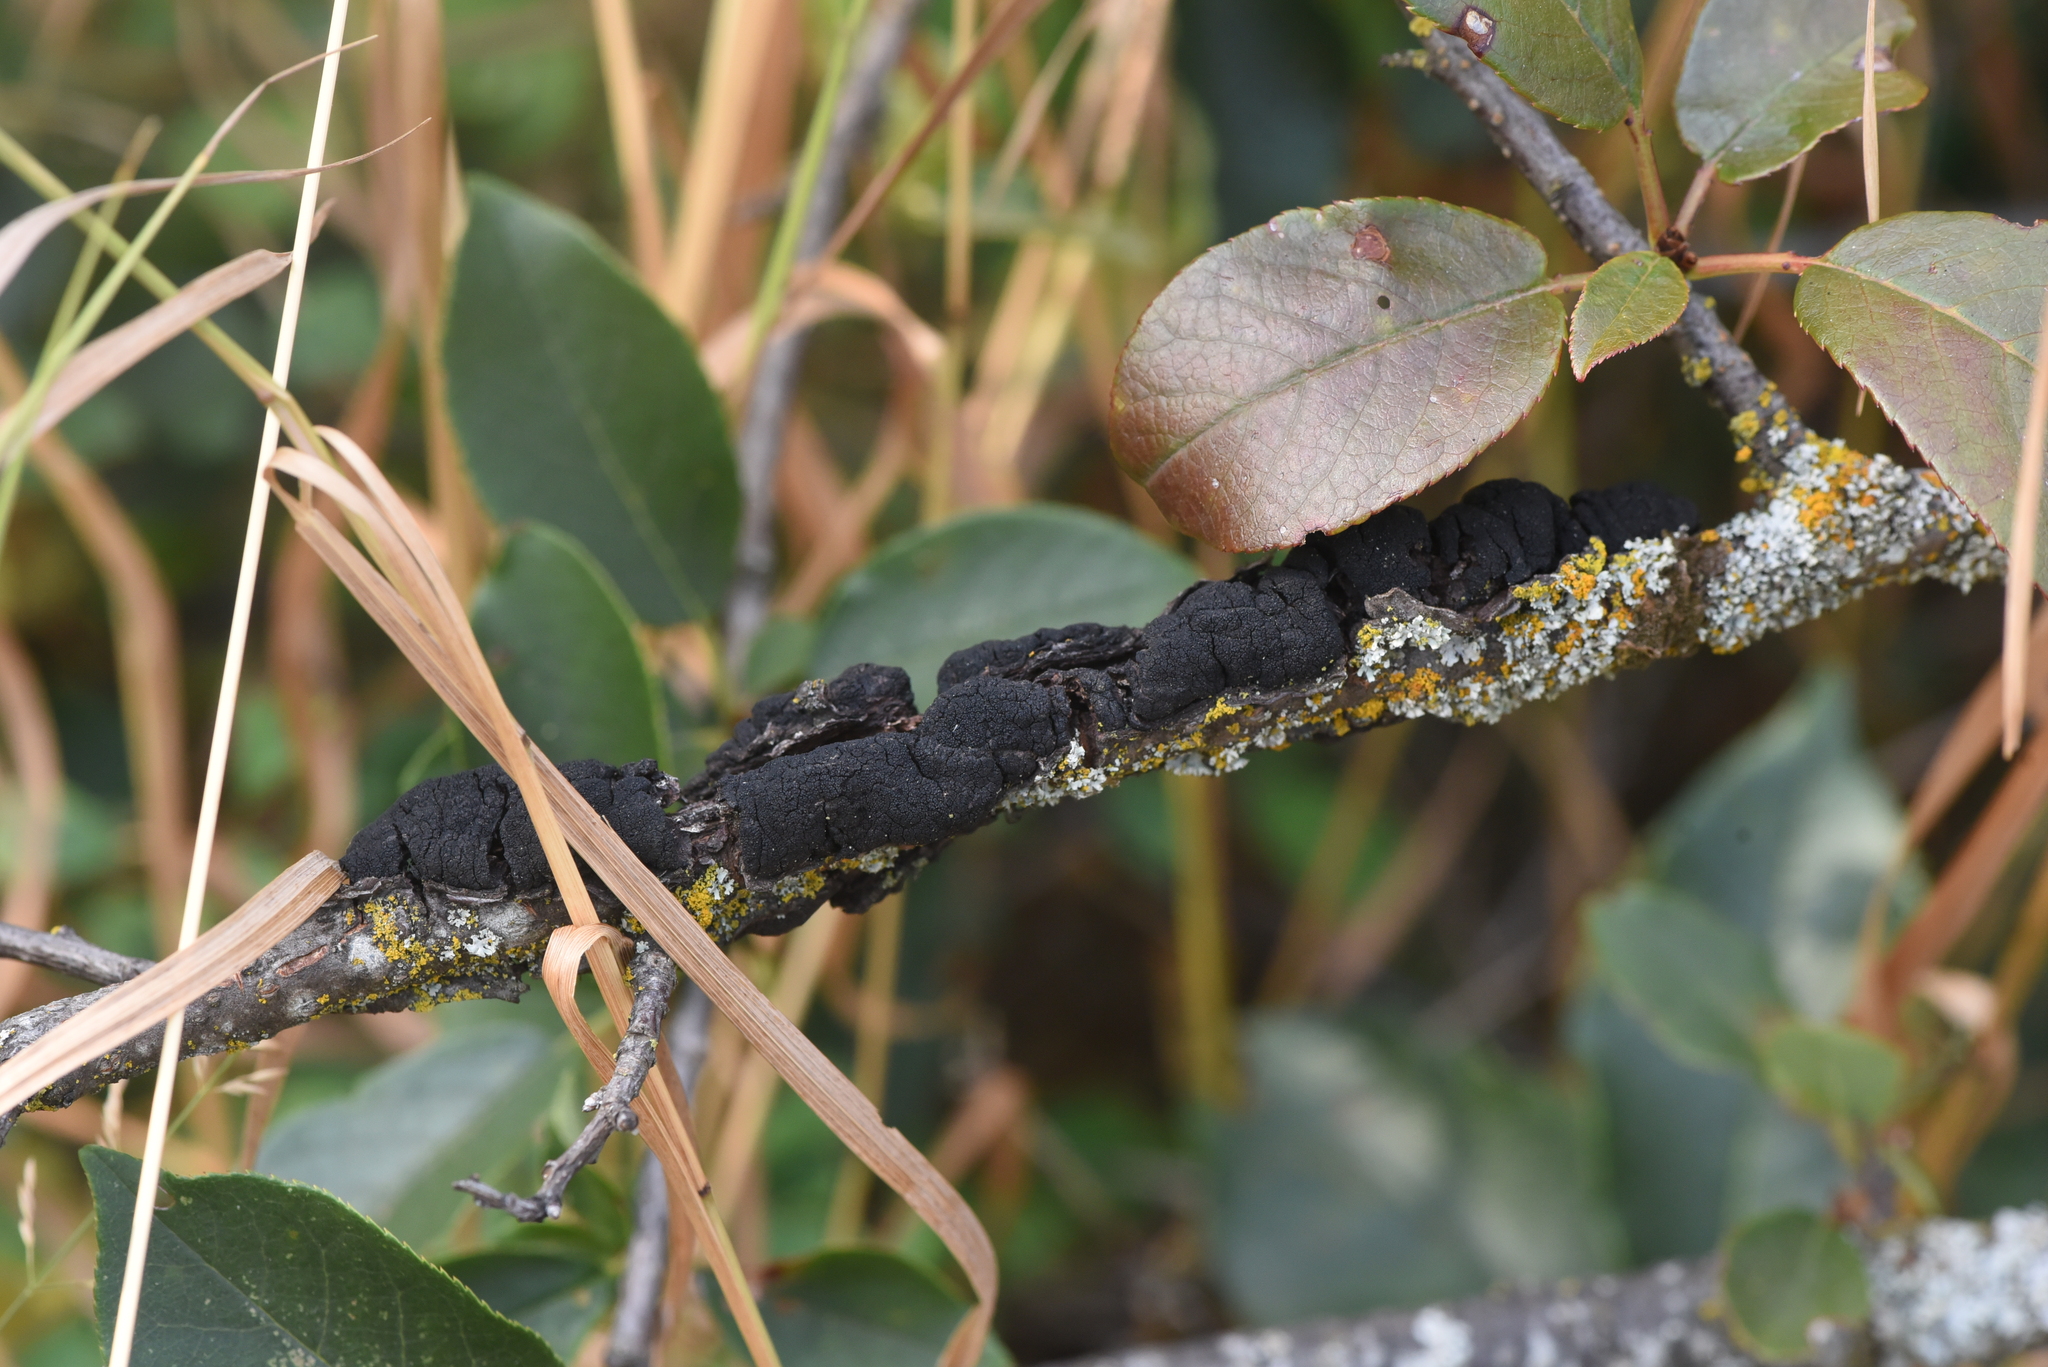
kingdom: Fungi
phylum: Ascomycota
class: Dothideomycetes
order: Venturiales
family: Venturiaceae
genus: Apiosporina
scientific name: Apiosporina morbosa
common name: Black knot
